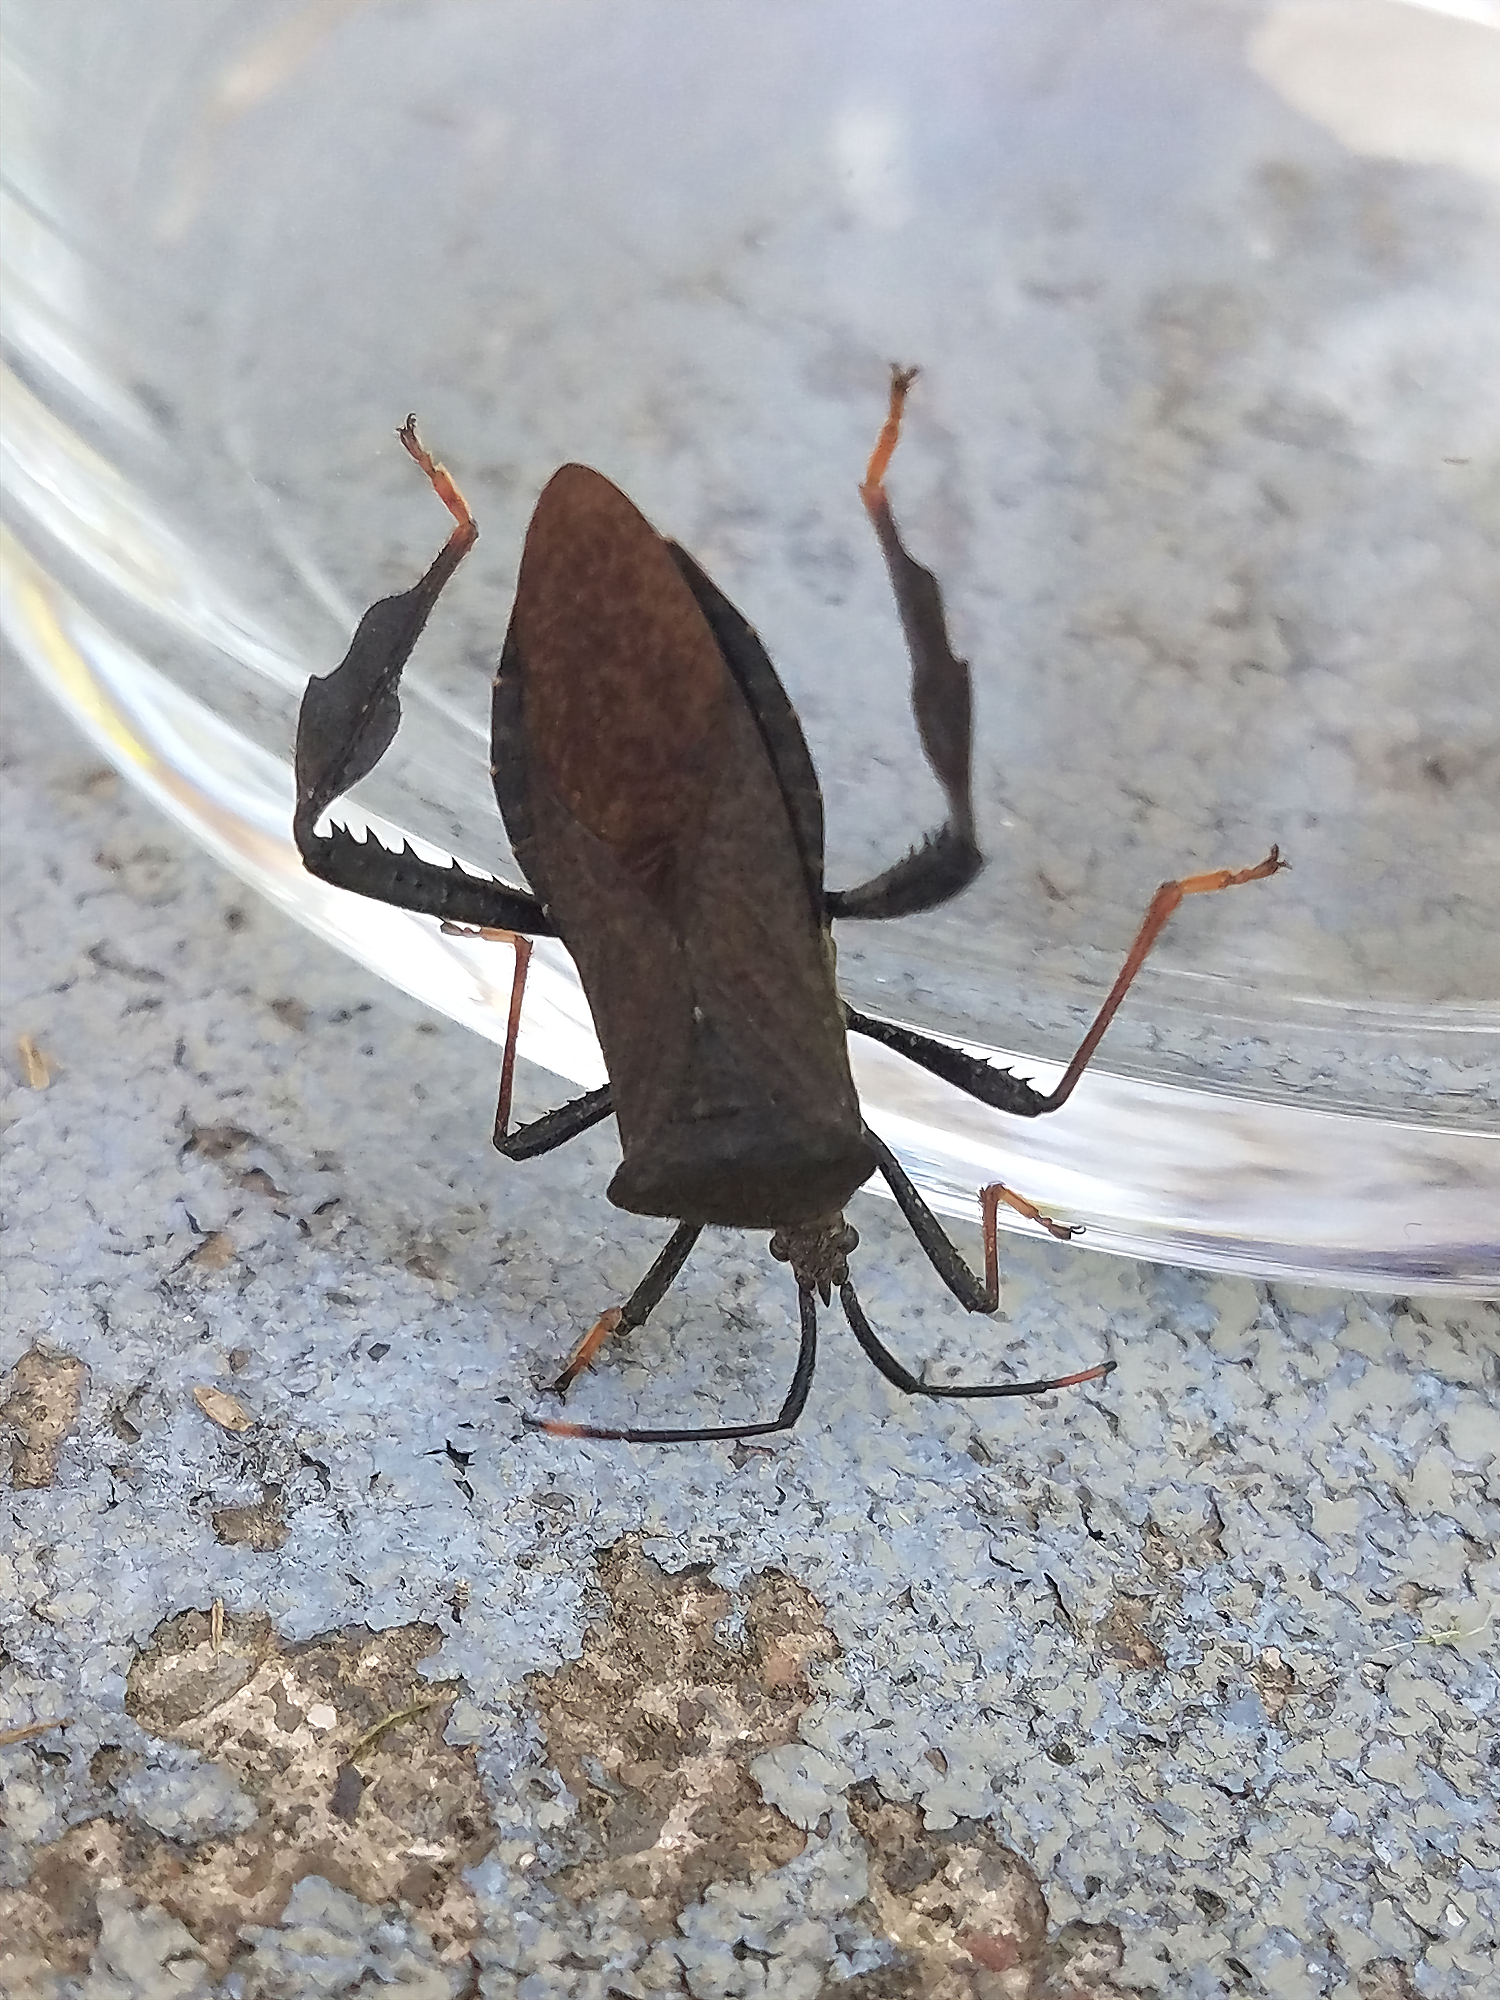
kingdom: Animalia
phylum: Arthropoda
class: Insecta
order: Hemiptera
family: Coreidae
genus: Acanthocephala
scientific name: Acanthocephala terminalis
